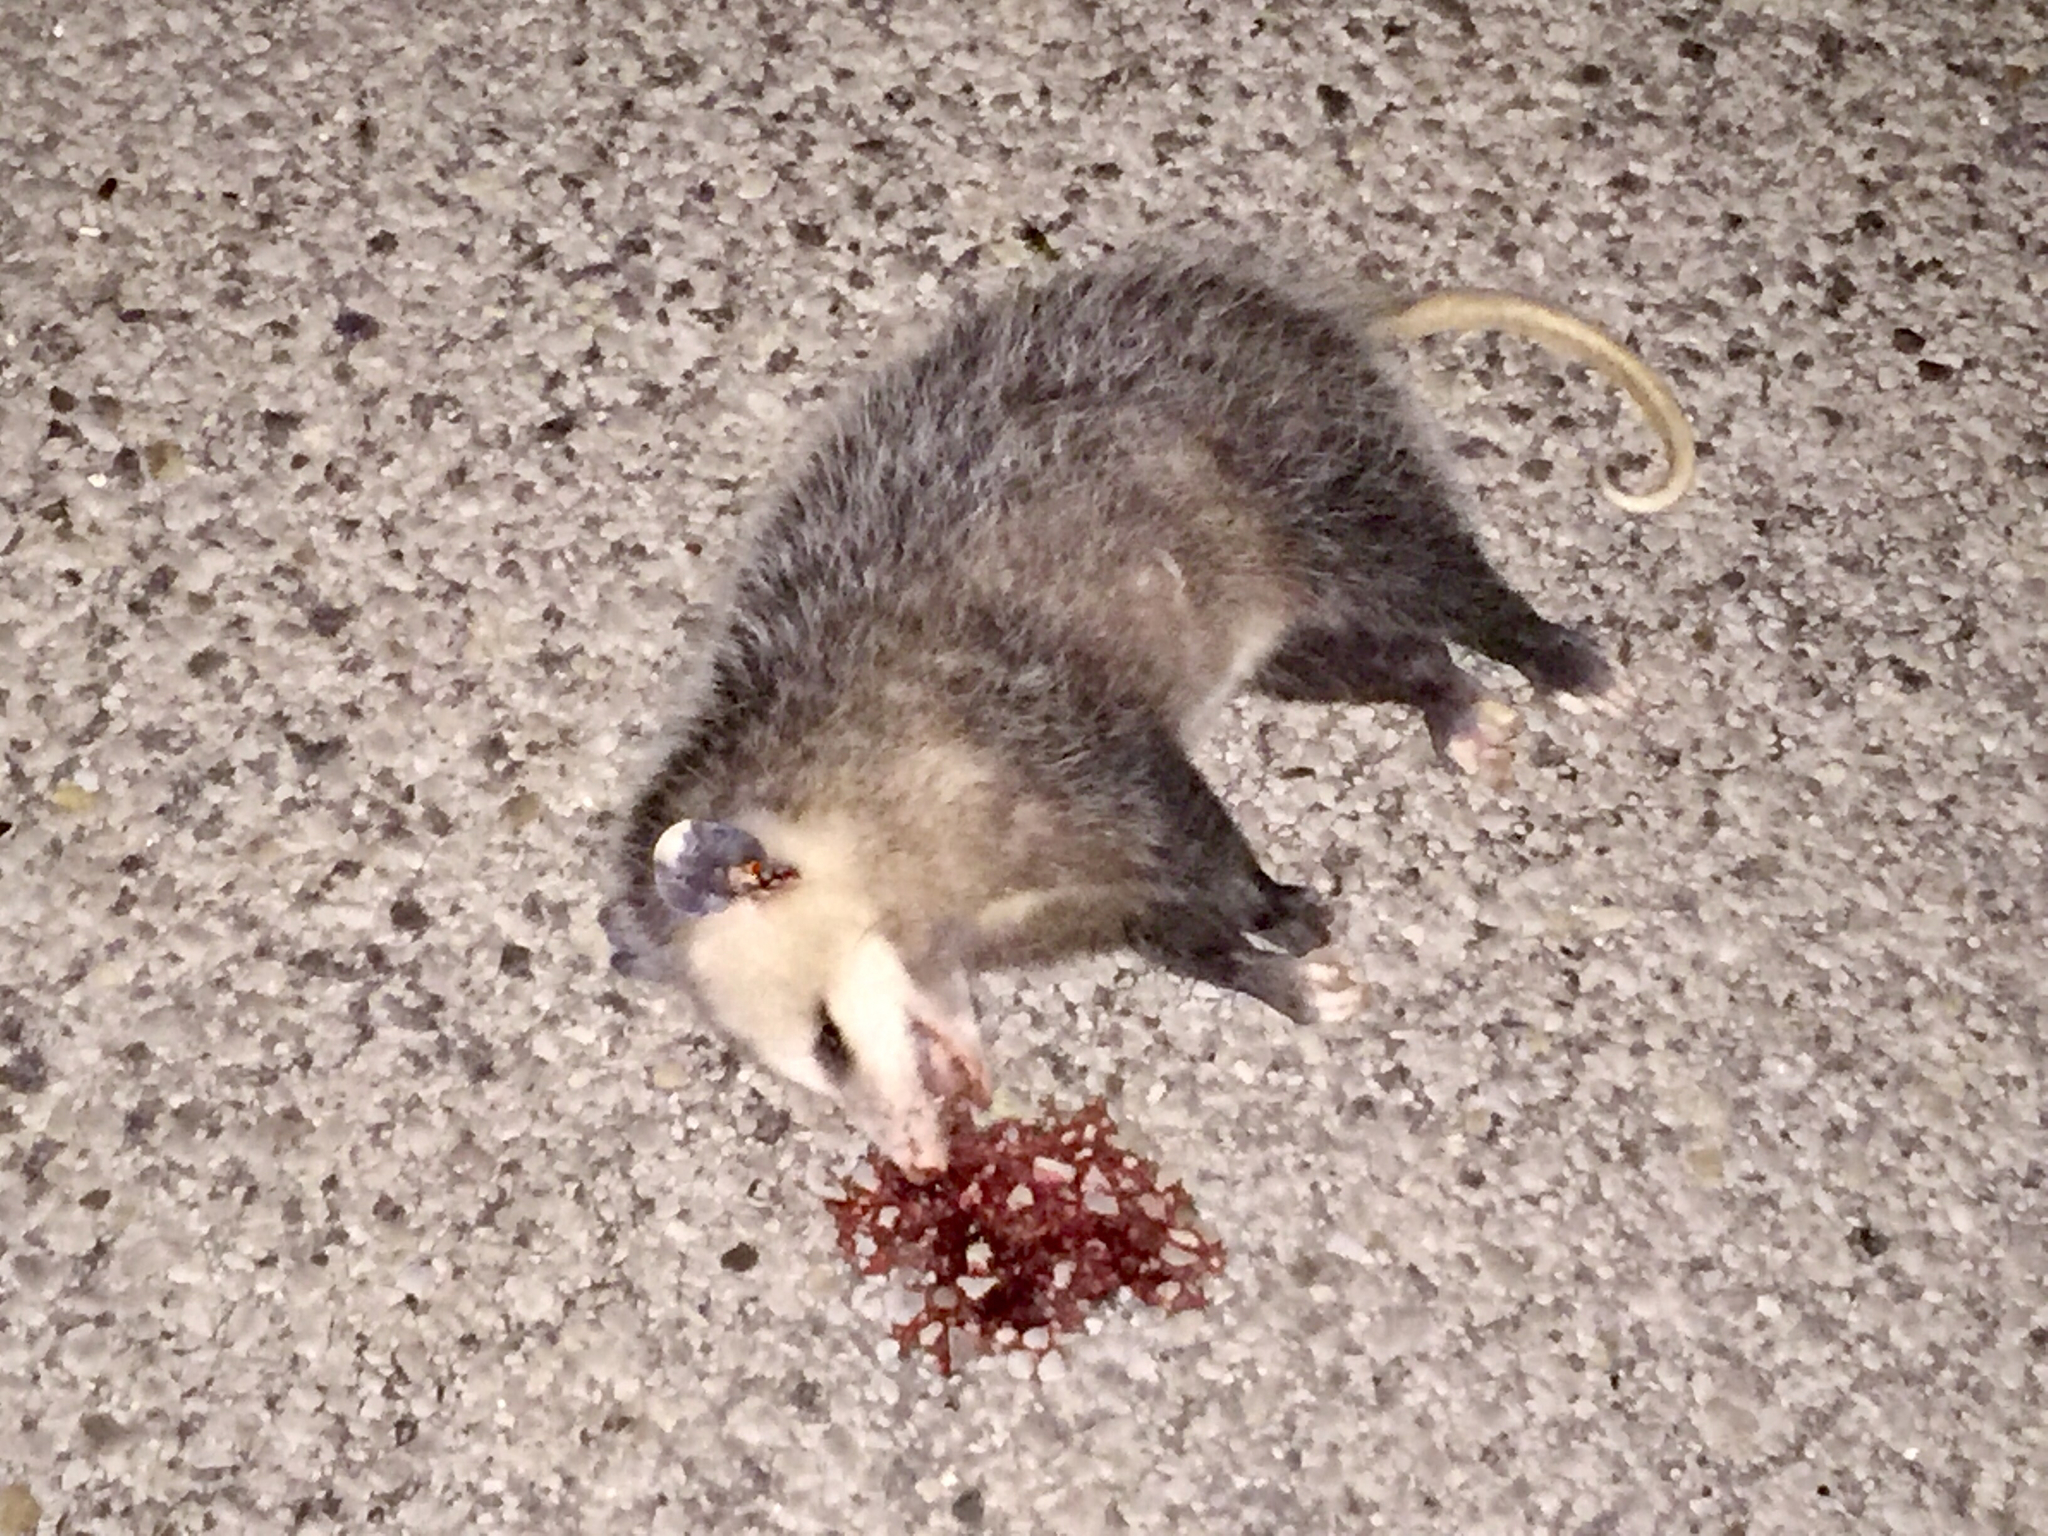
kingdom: Animalia
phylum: Chordata
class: Mammalia
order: Didelphimorphia
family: Didelphidae
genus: Didelphis
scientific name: Didelphis virginiana
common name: Virginia opossum
